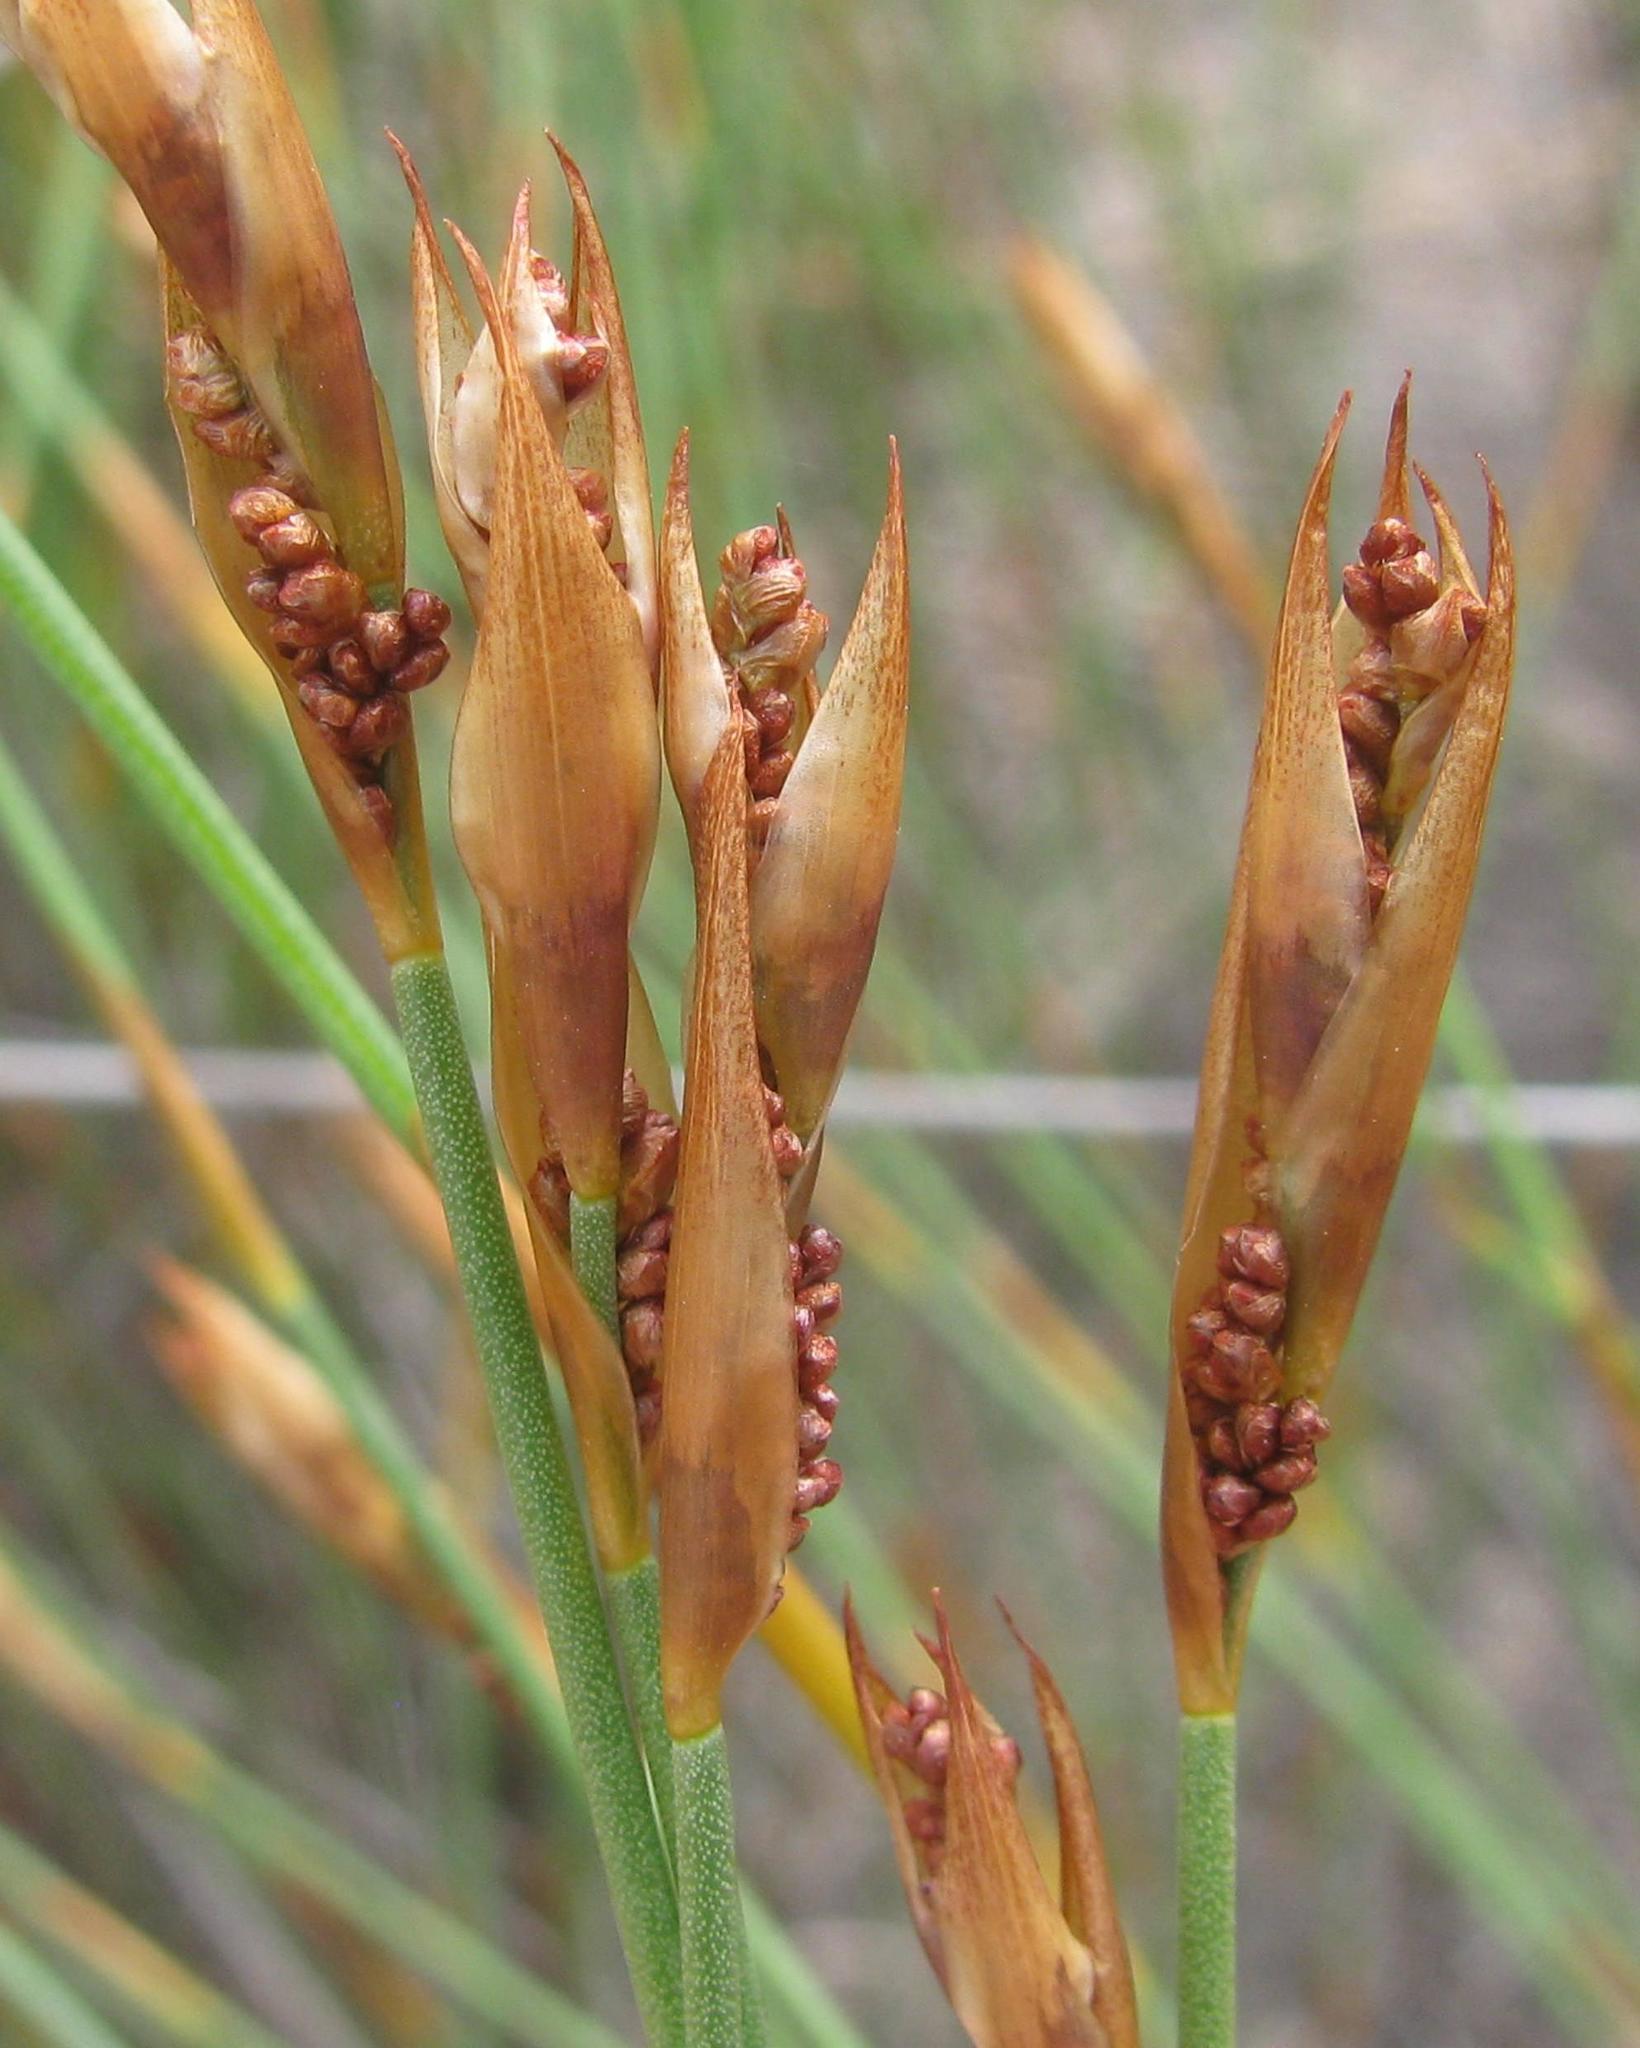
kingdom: Plantae
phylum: Tracheophyta
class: Liliopsida
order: Poales
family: Restionaceae
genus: Elegia
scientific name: Elegia vaginulata
